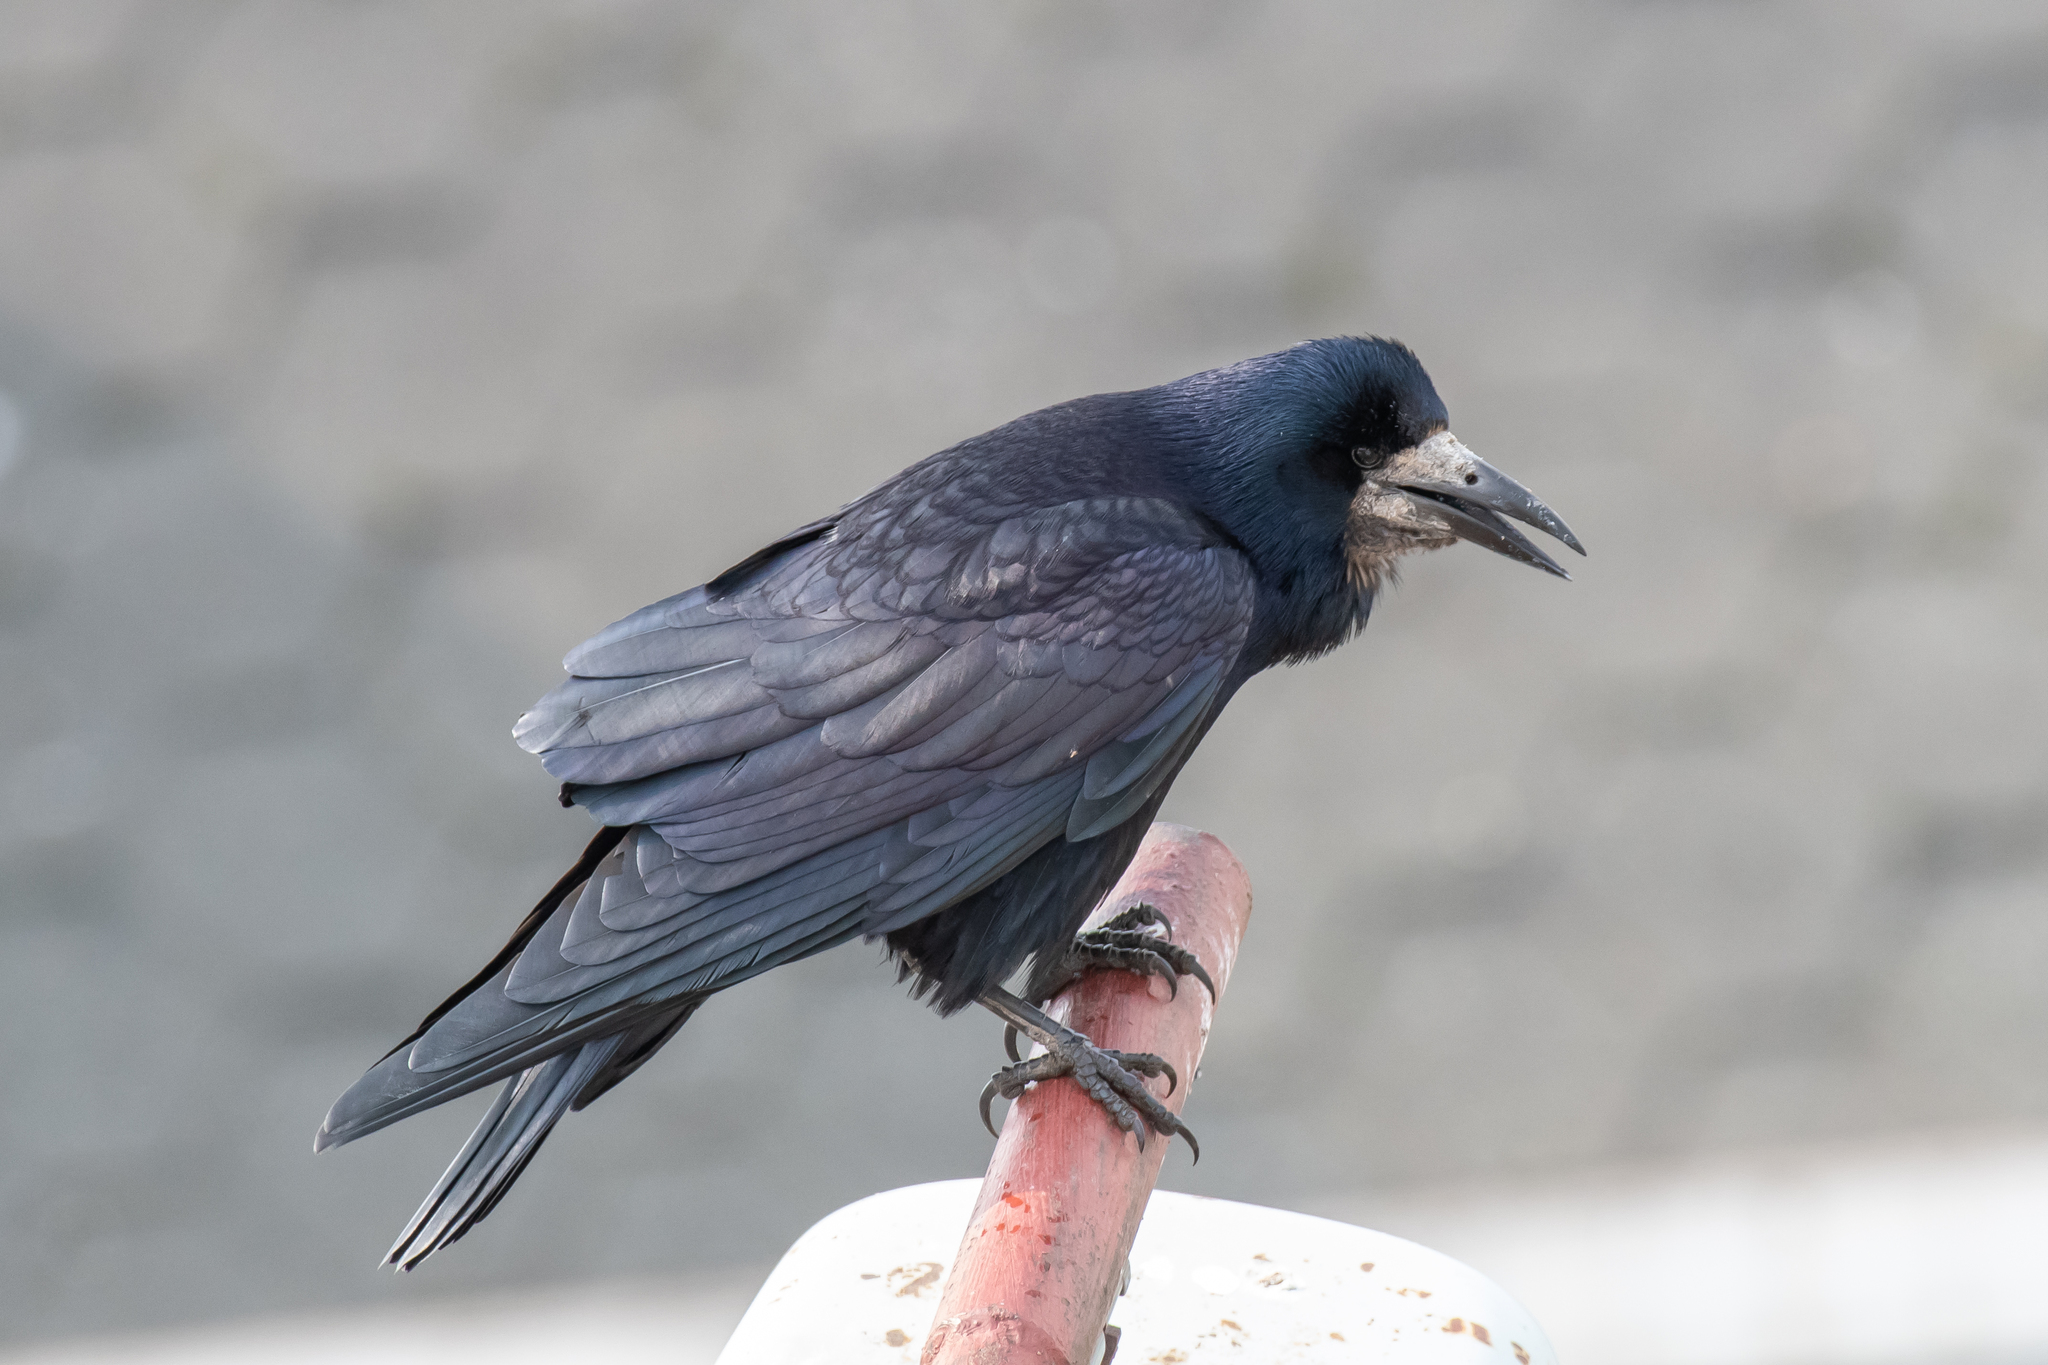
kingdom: Animalia
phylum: Chordata
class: Aves
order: Passeriformes
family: Corvidae
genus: Corvus
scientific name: Corvus frugilegus
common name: Rook
